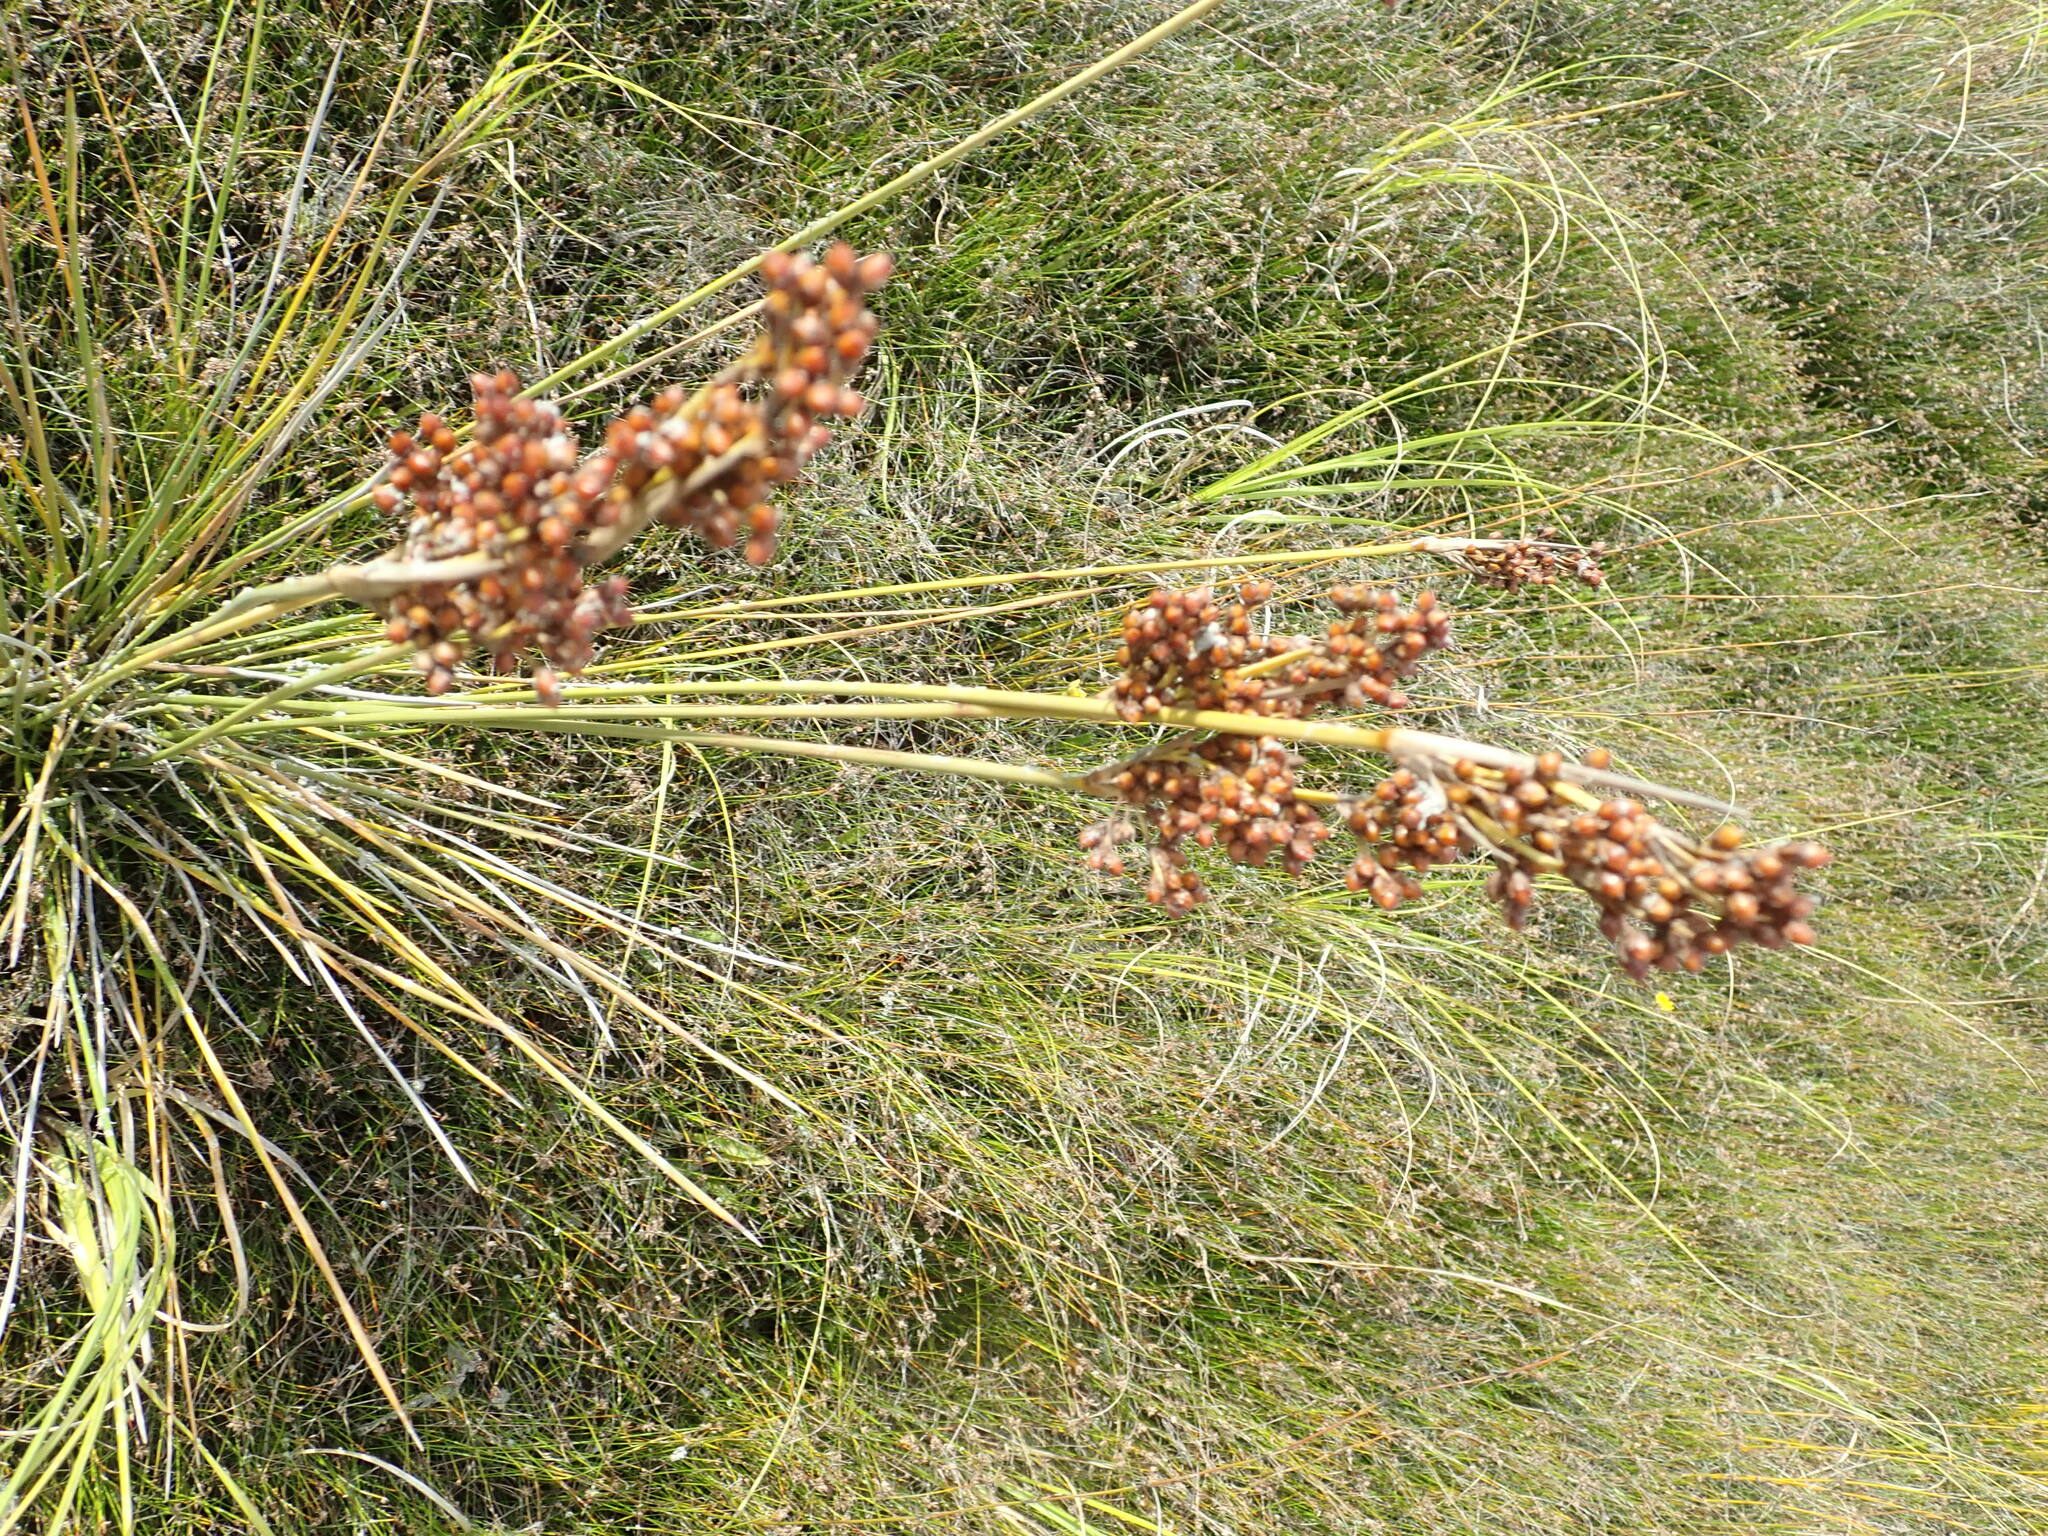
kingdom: Plantae
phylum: Tracheophyta
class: Liliopsida
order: Poales
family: Juncaceae
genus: Juncus
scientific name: Juncus acutus
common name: Sharp rush
